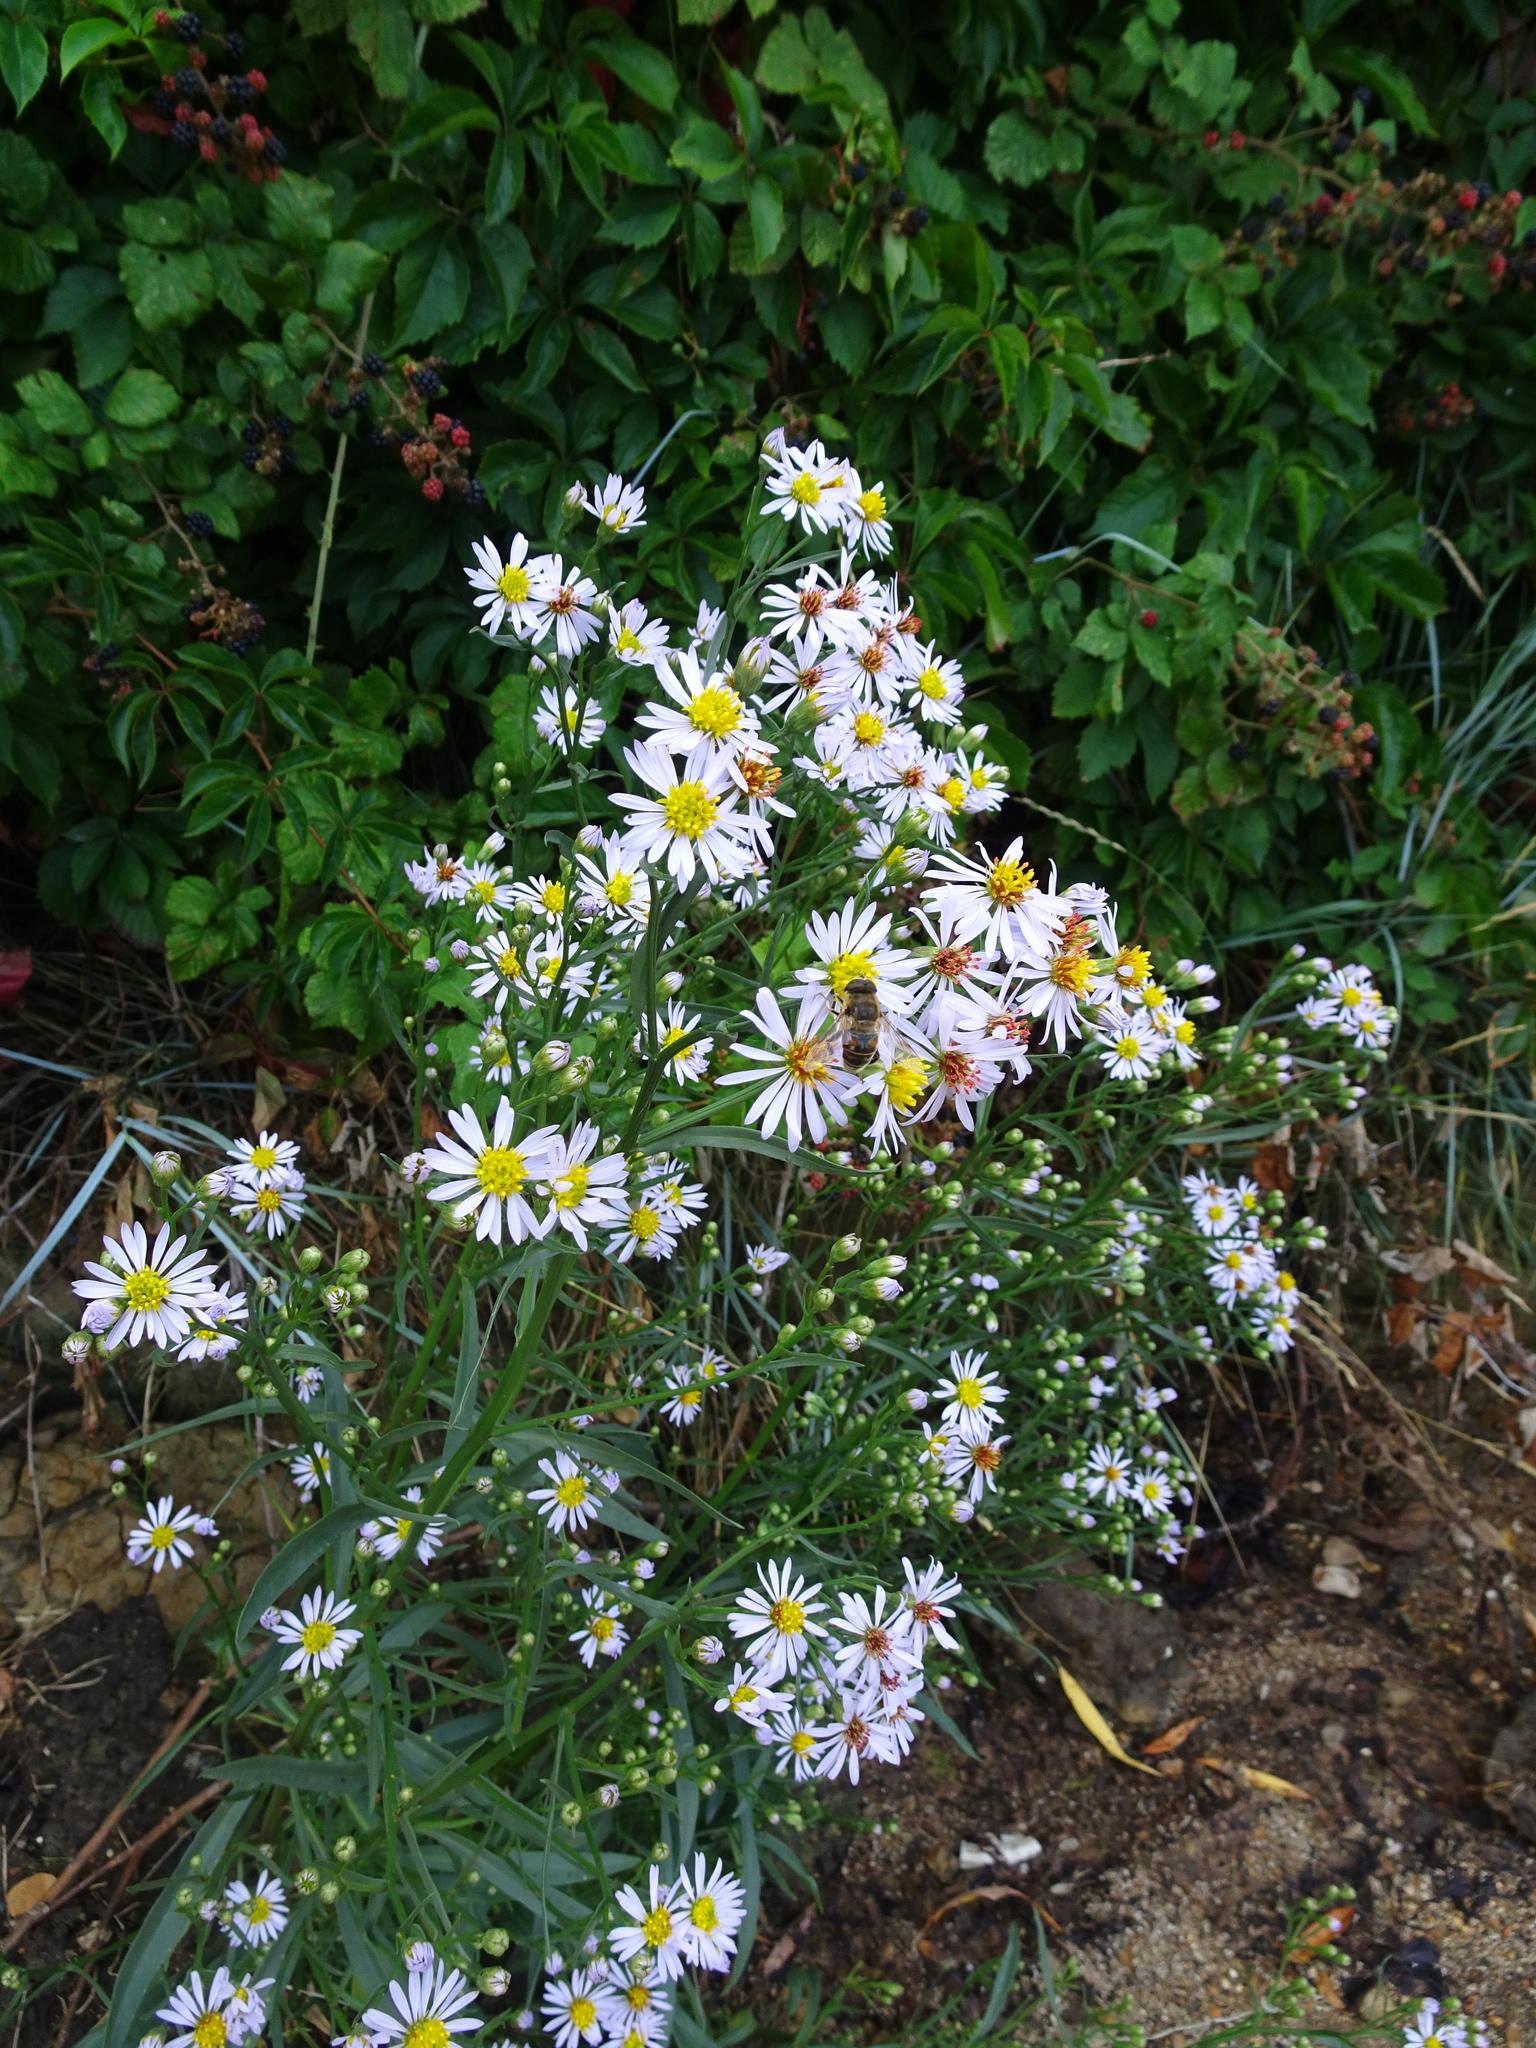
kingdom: Plantae
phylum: Tracheophyta
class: Magnoliopsida
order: Asterales
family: Asteraceae
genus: Tripolium
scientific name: Tripolium pannonicum
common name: Sea aster
